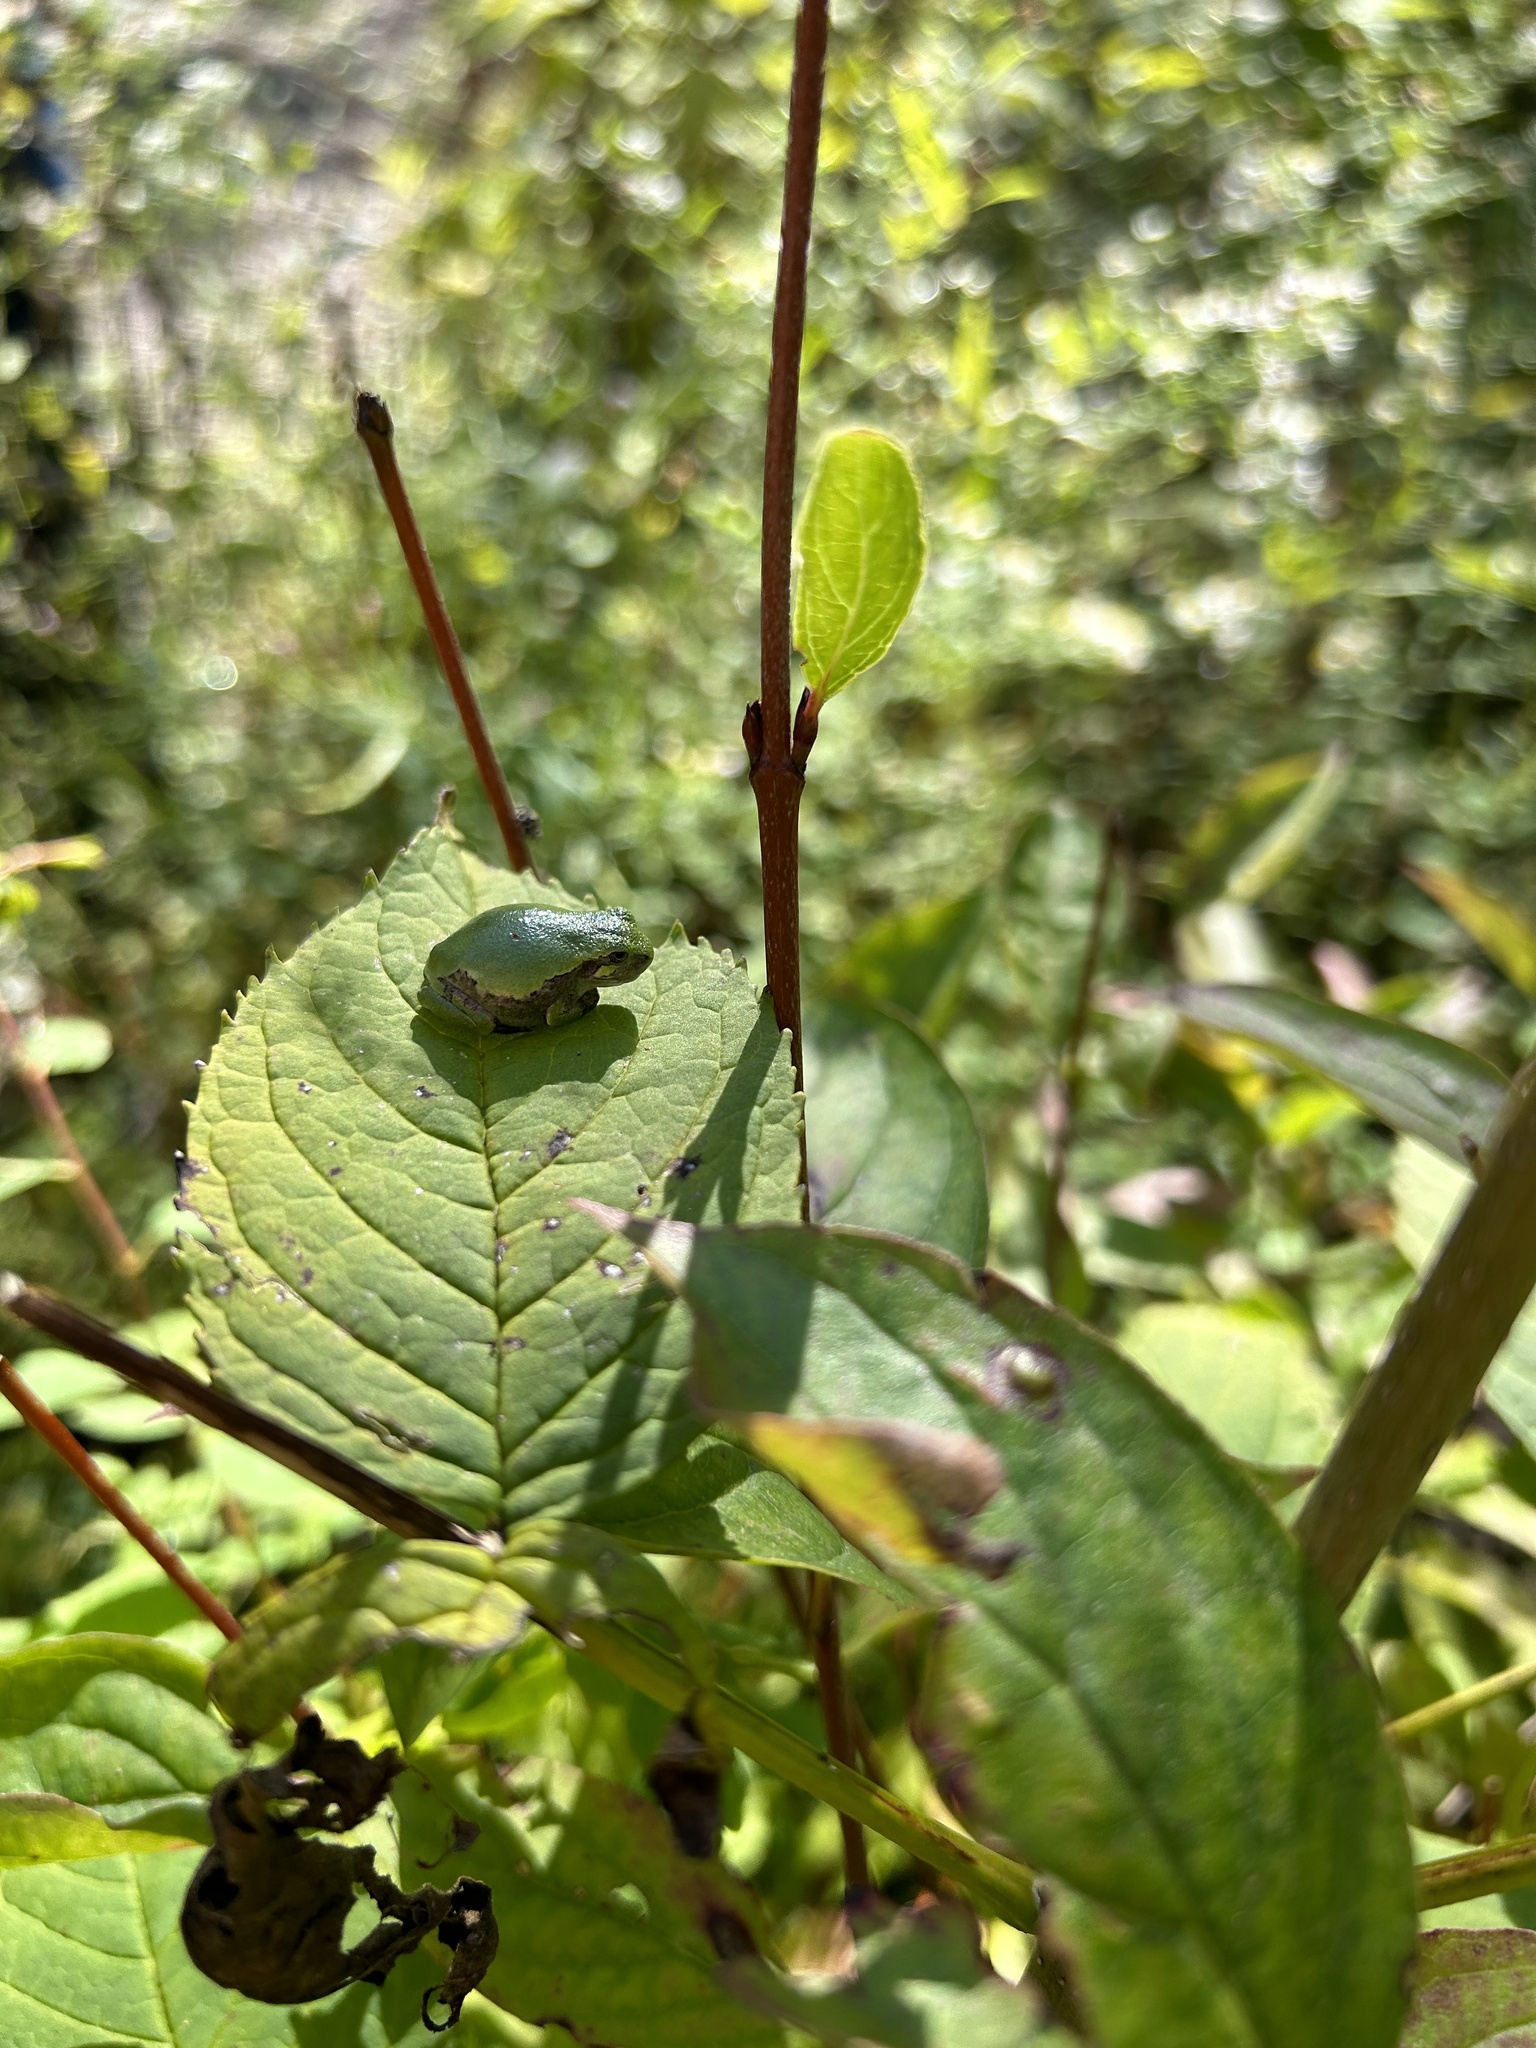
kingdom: Animalia
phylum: Chordata
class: Amphibia
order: Anura
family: Hylidae
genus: Hyla
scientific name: Hyla
